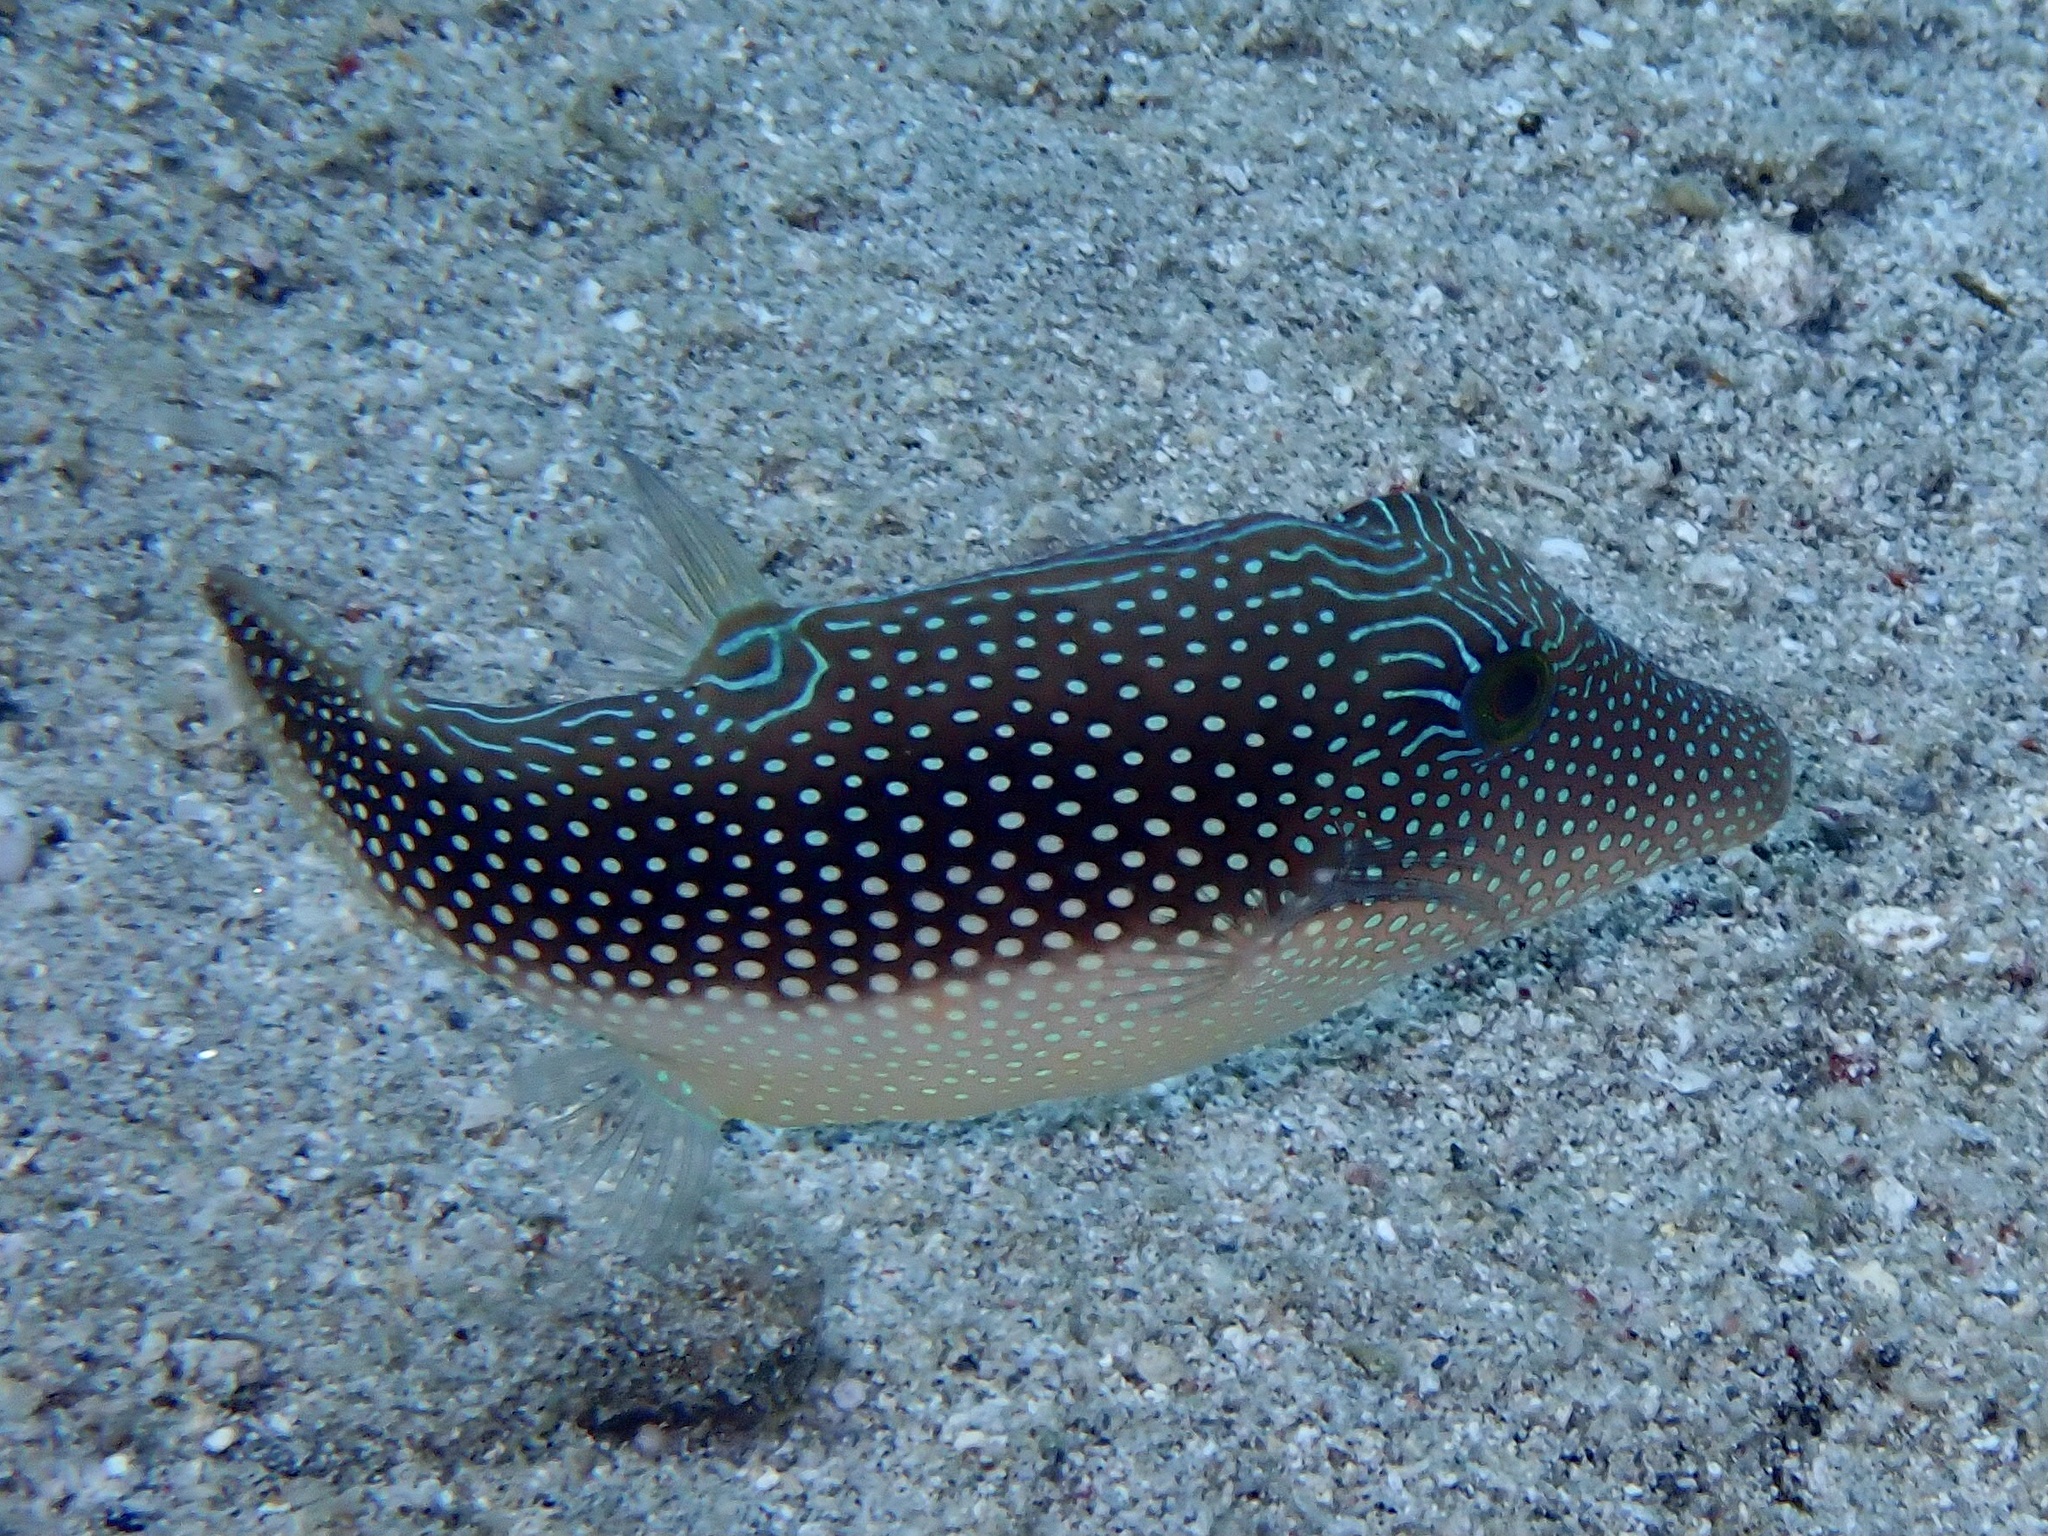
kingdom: Animalia
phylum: Chordata
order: Tetraodontiformes
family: Tetraodontidae
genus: Canthigaster
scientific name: Canthigaster margaritata
